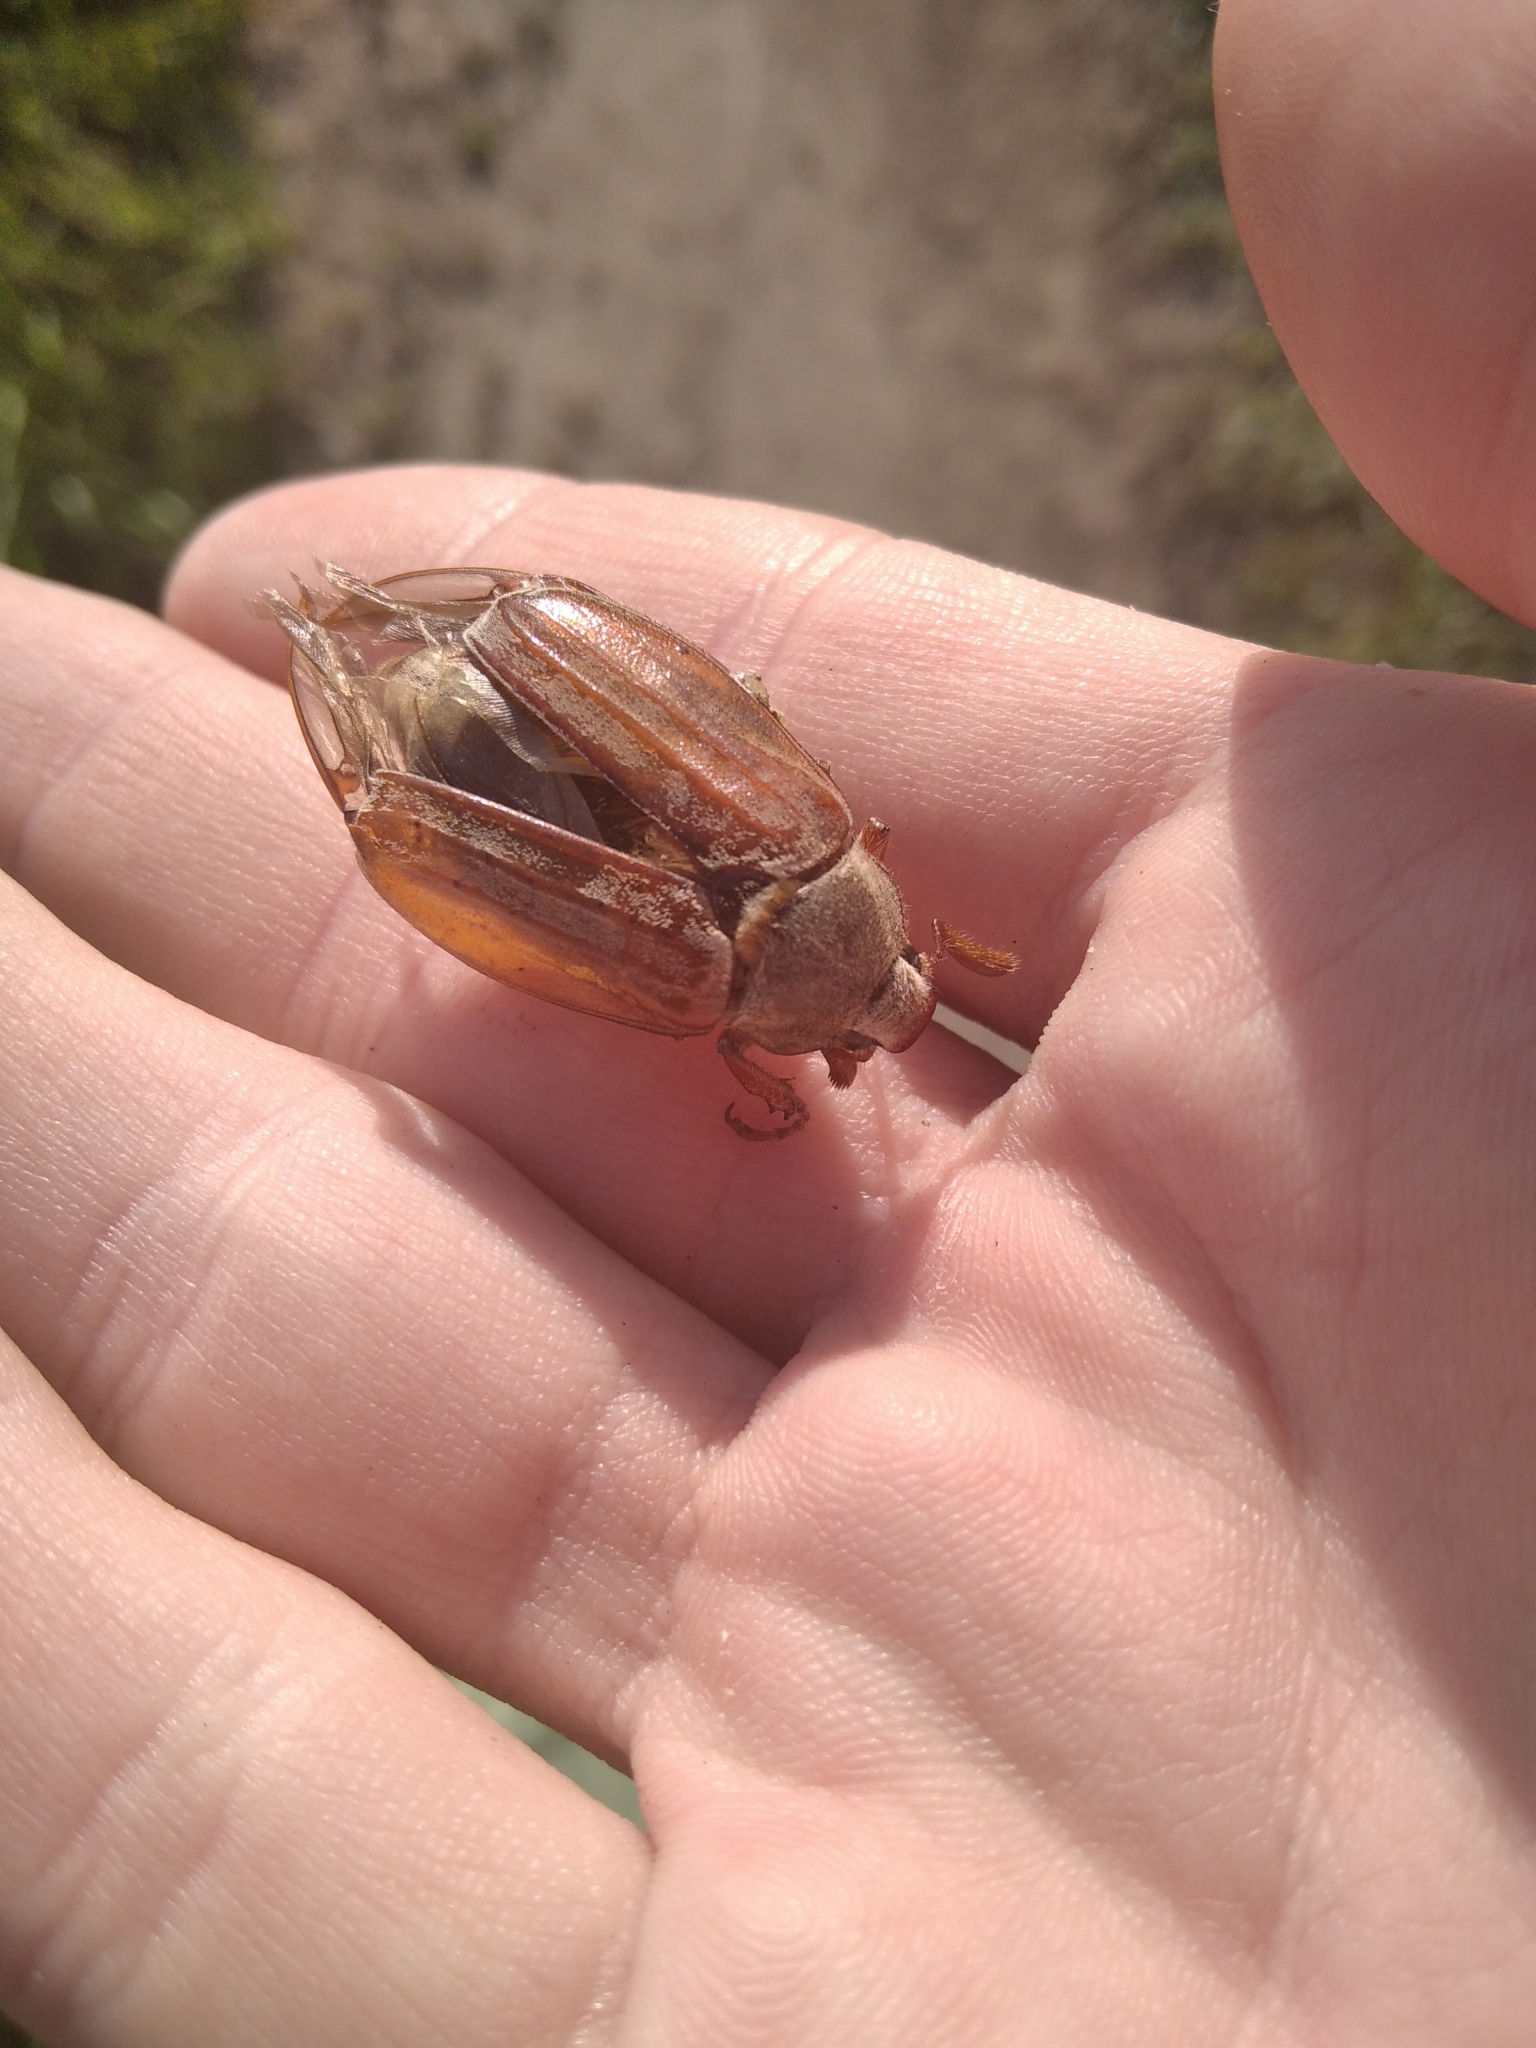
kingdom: Animalia
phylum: Arthropoda
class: Insecta
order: Coleoptera
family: Scarabaeidae
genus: Melolontha
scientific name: Melolontha melolontha
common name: Cockchafer maybeetle
